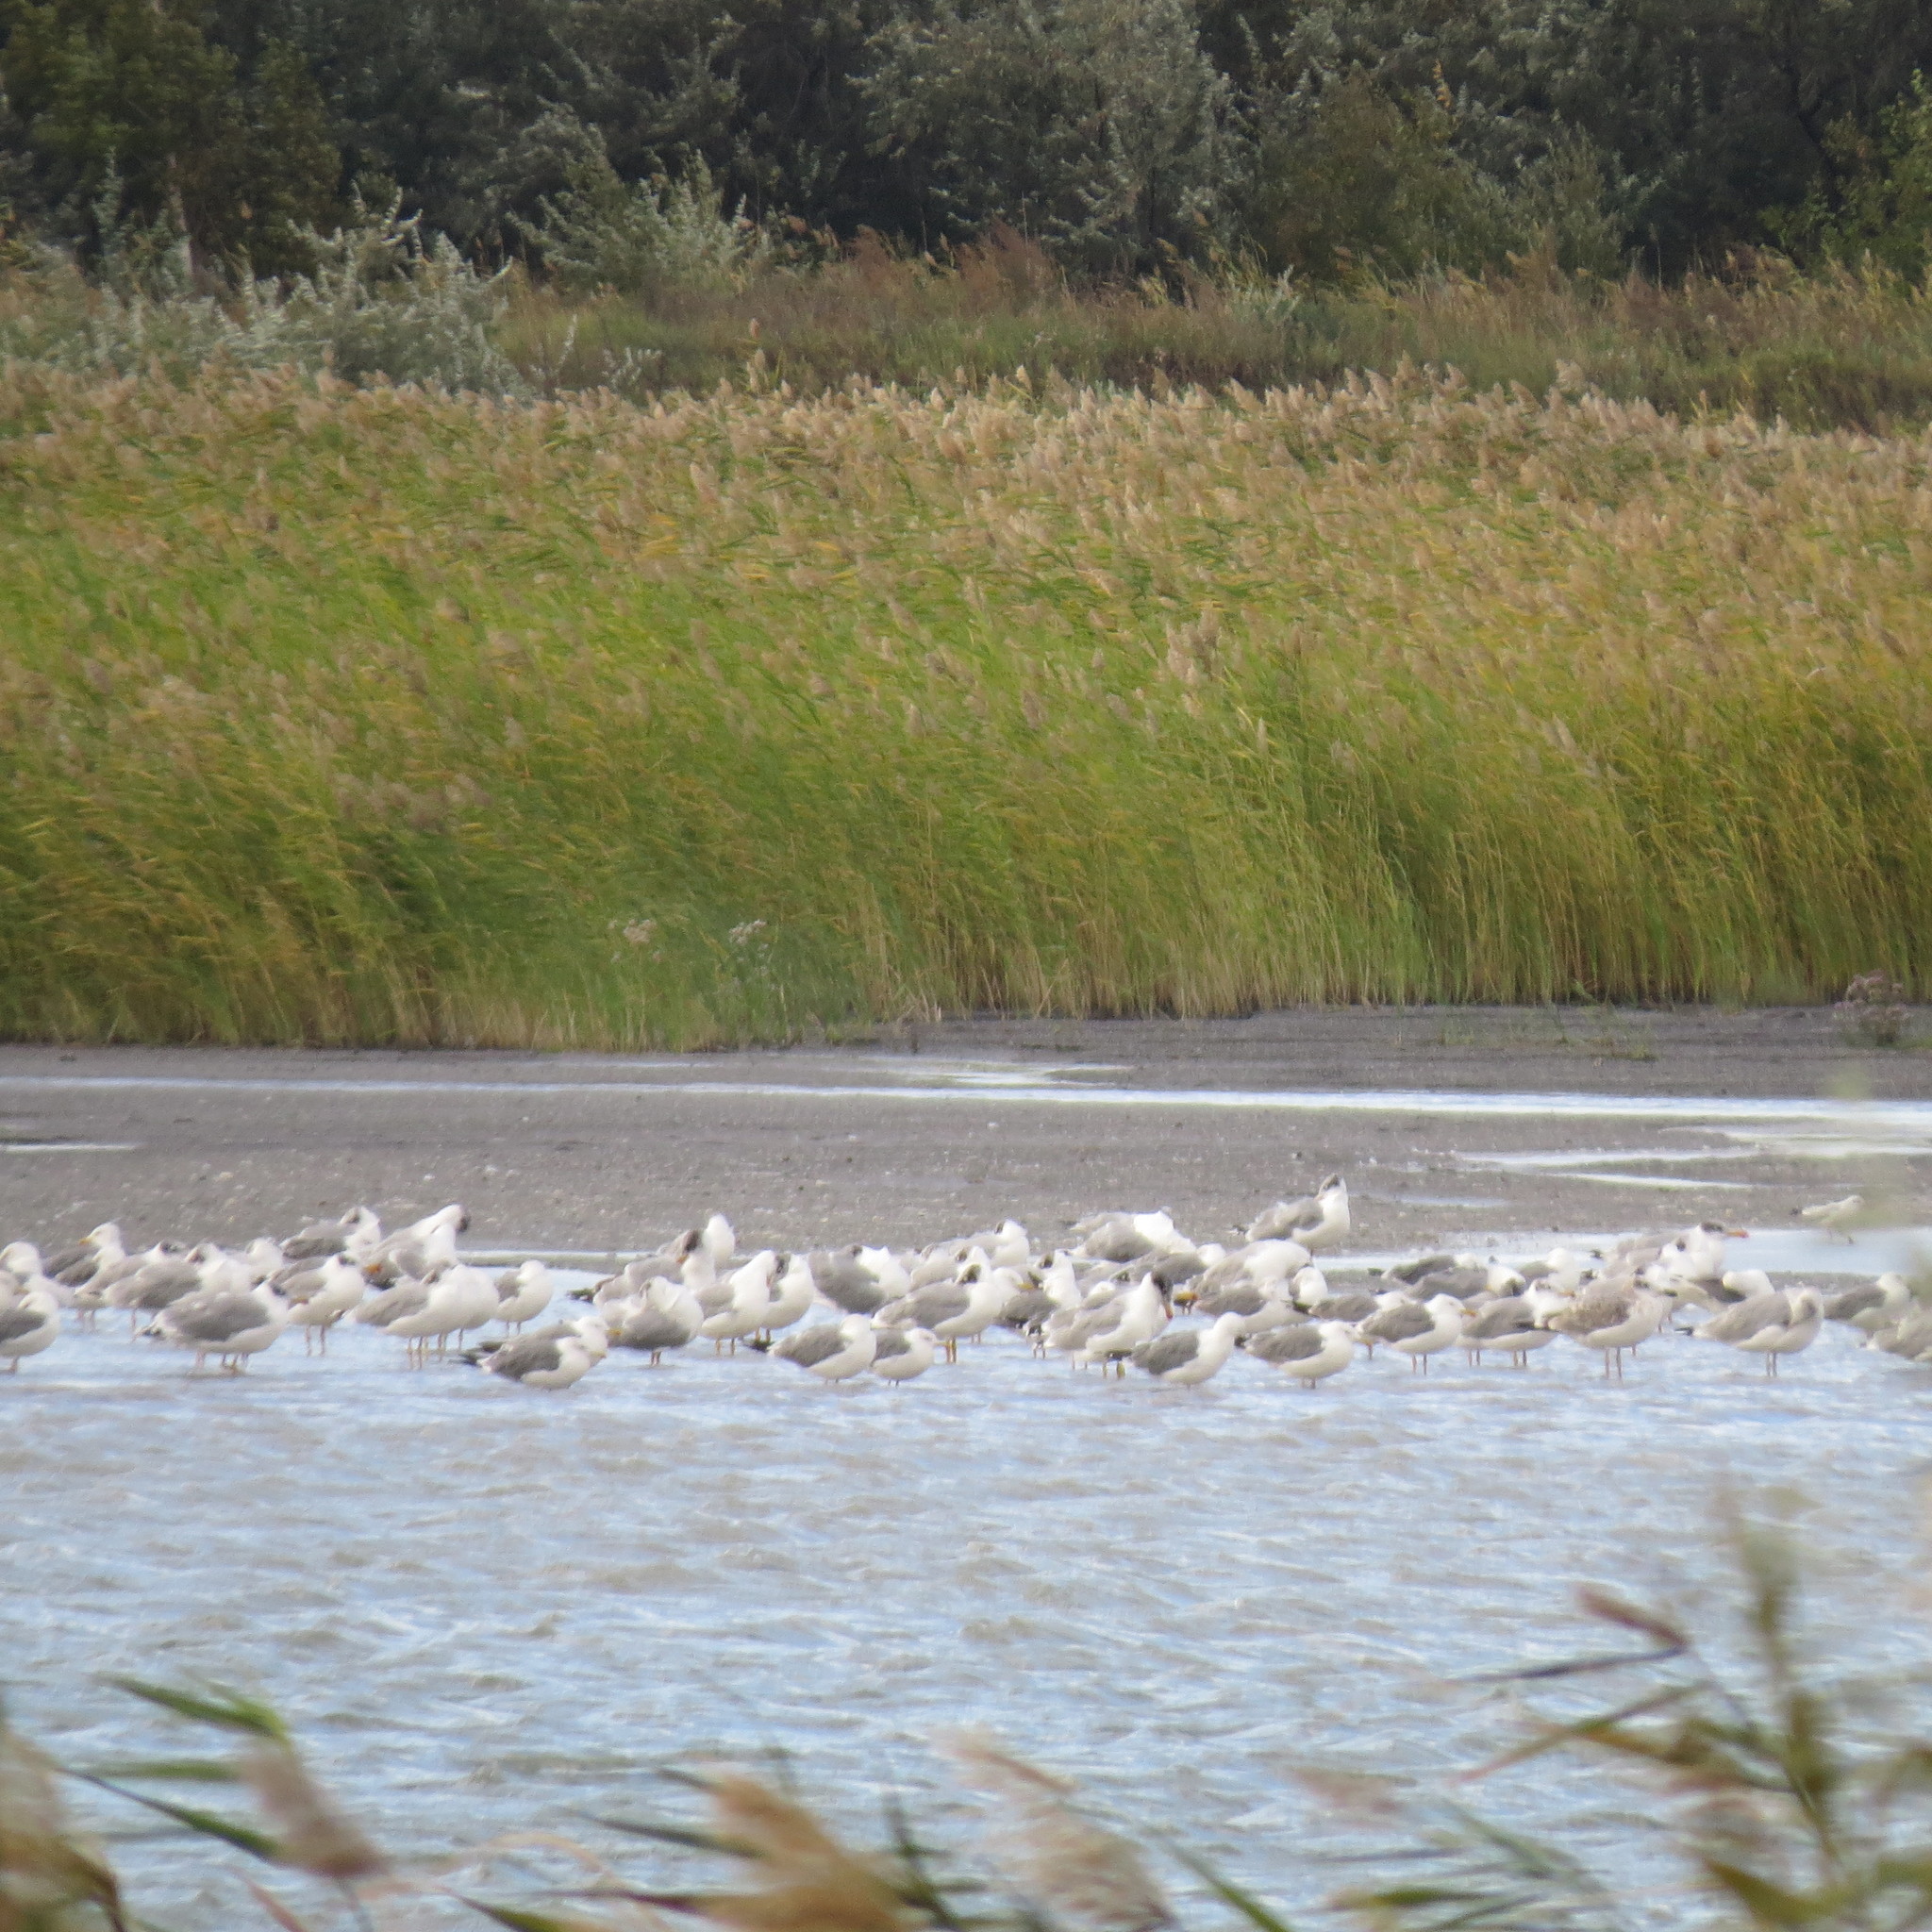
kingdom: Animalia
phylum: Chordata
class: Aves
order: Charadriiformes
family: Laridae
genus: Ichthyaetus
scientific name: Ichthyaetus ichthyaetus
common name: Pallas's gull
